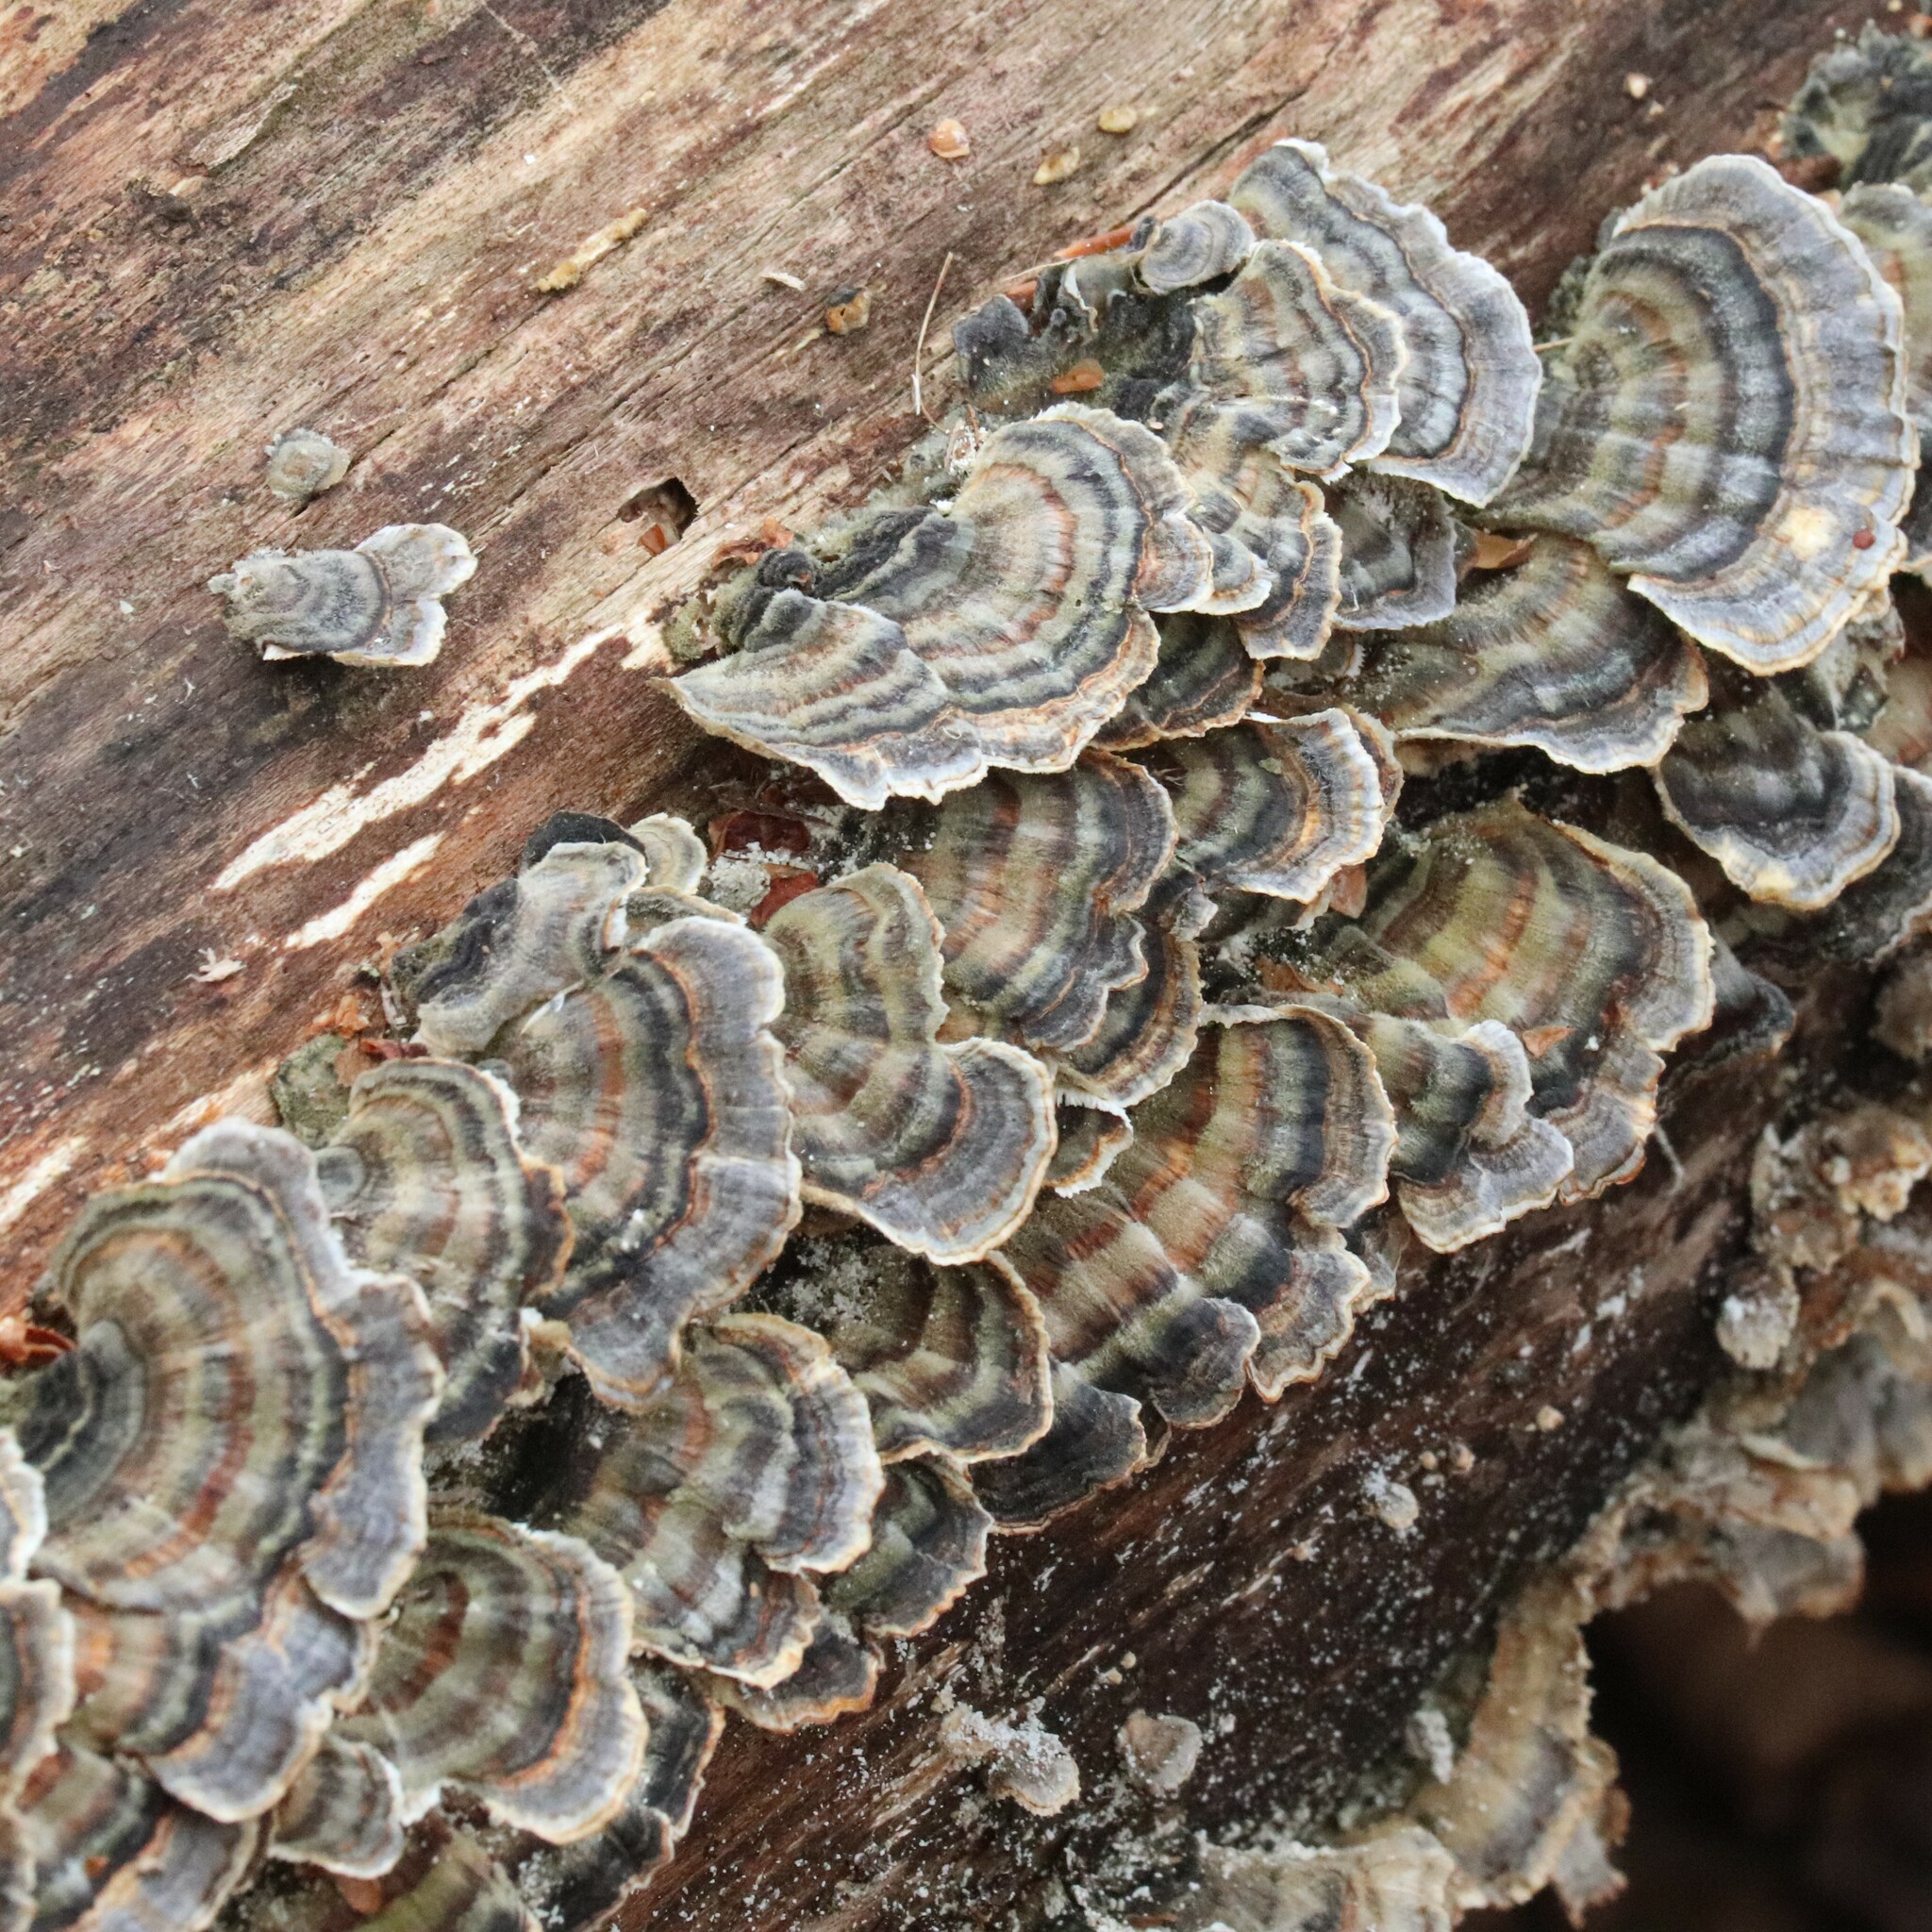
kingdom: Fungi
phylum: Basidiomycota
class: Agaricomycetes
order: Polyporales
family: Polyporaceae
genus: Trametes
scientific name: Trametes versicolor
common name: Turkeytail
